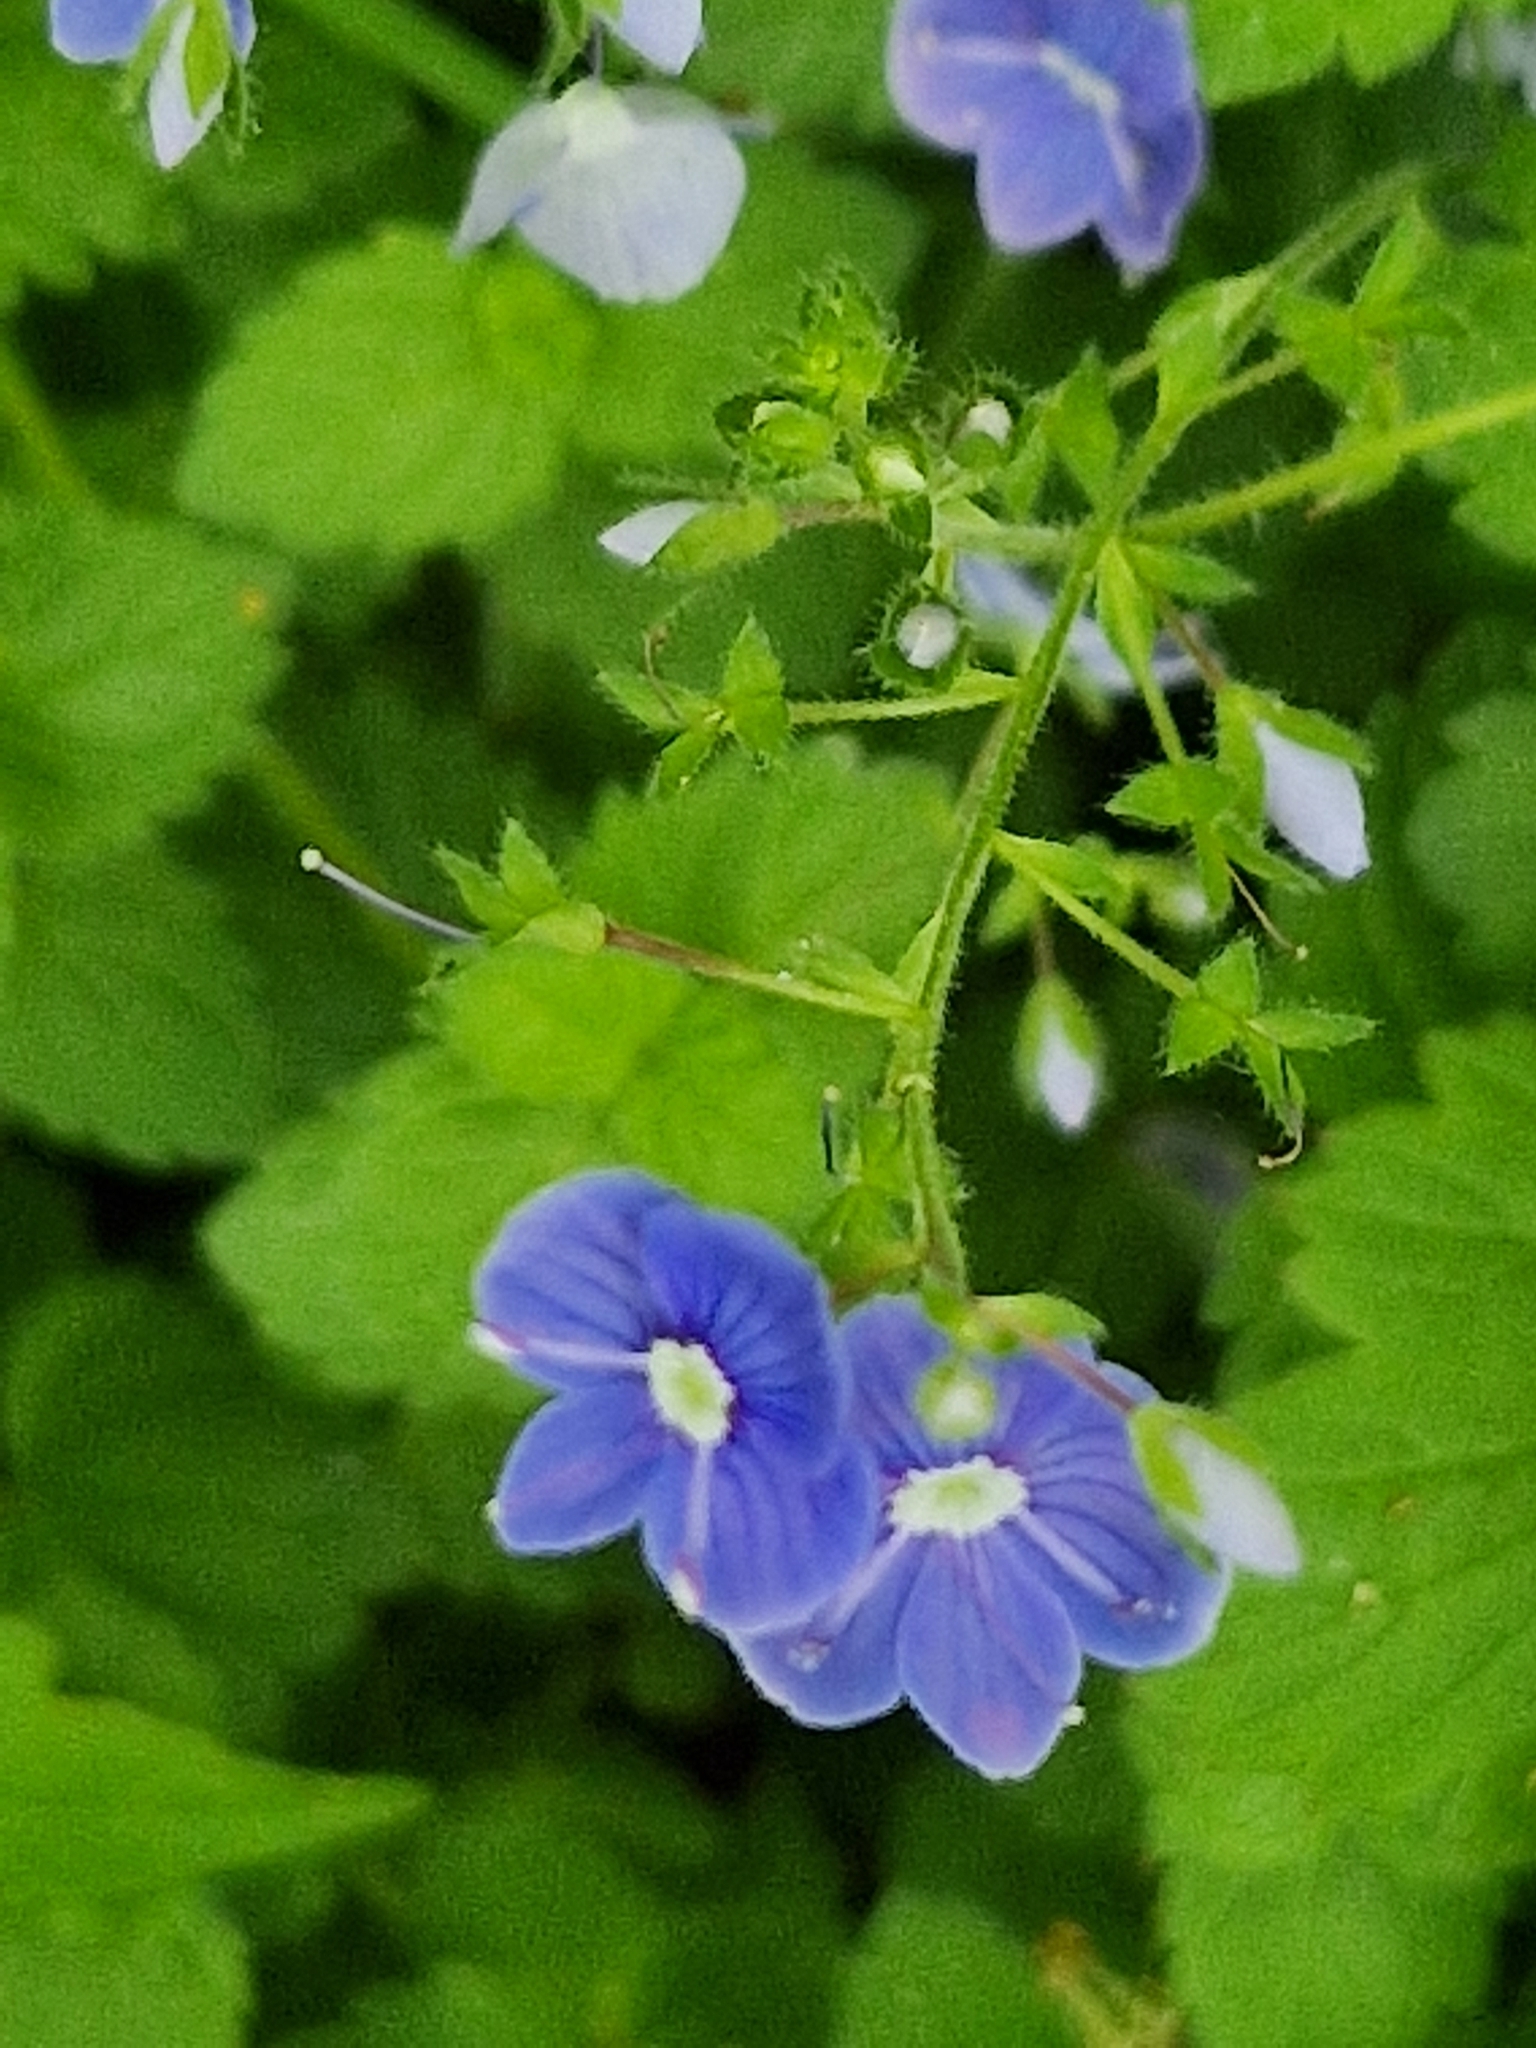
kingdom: Plantae
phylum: Tracheophyta
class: Magnoliopsida
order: Lamiales
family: Plantaginaceae
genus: Veronica
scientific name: Veronica chamaedrys
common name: Germander speedwell
